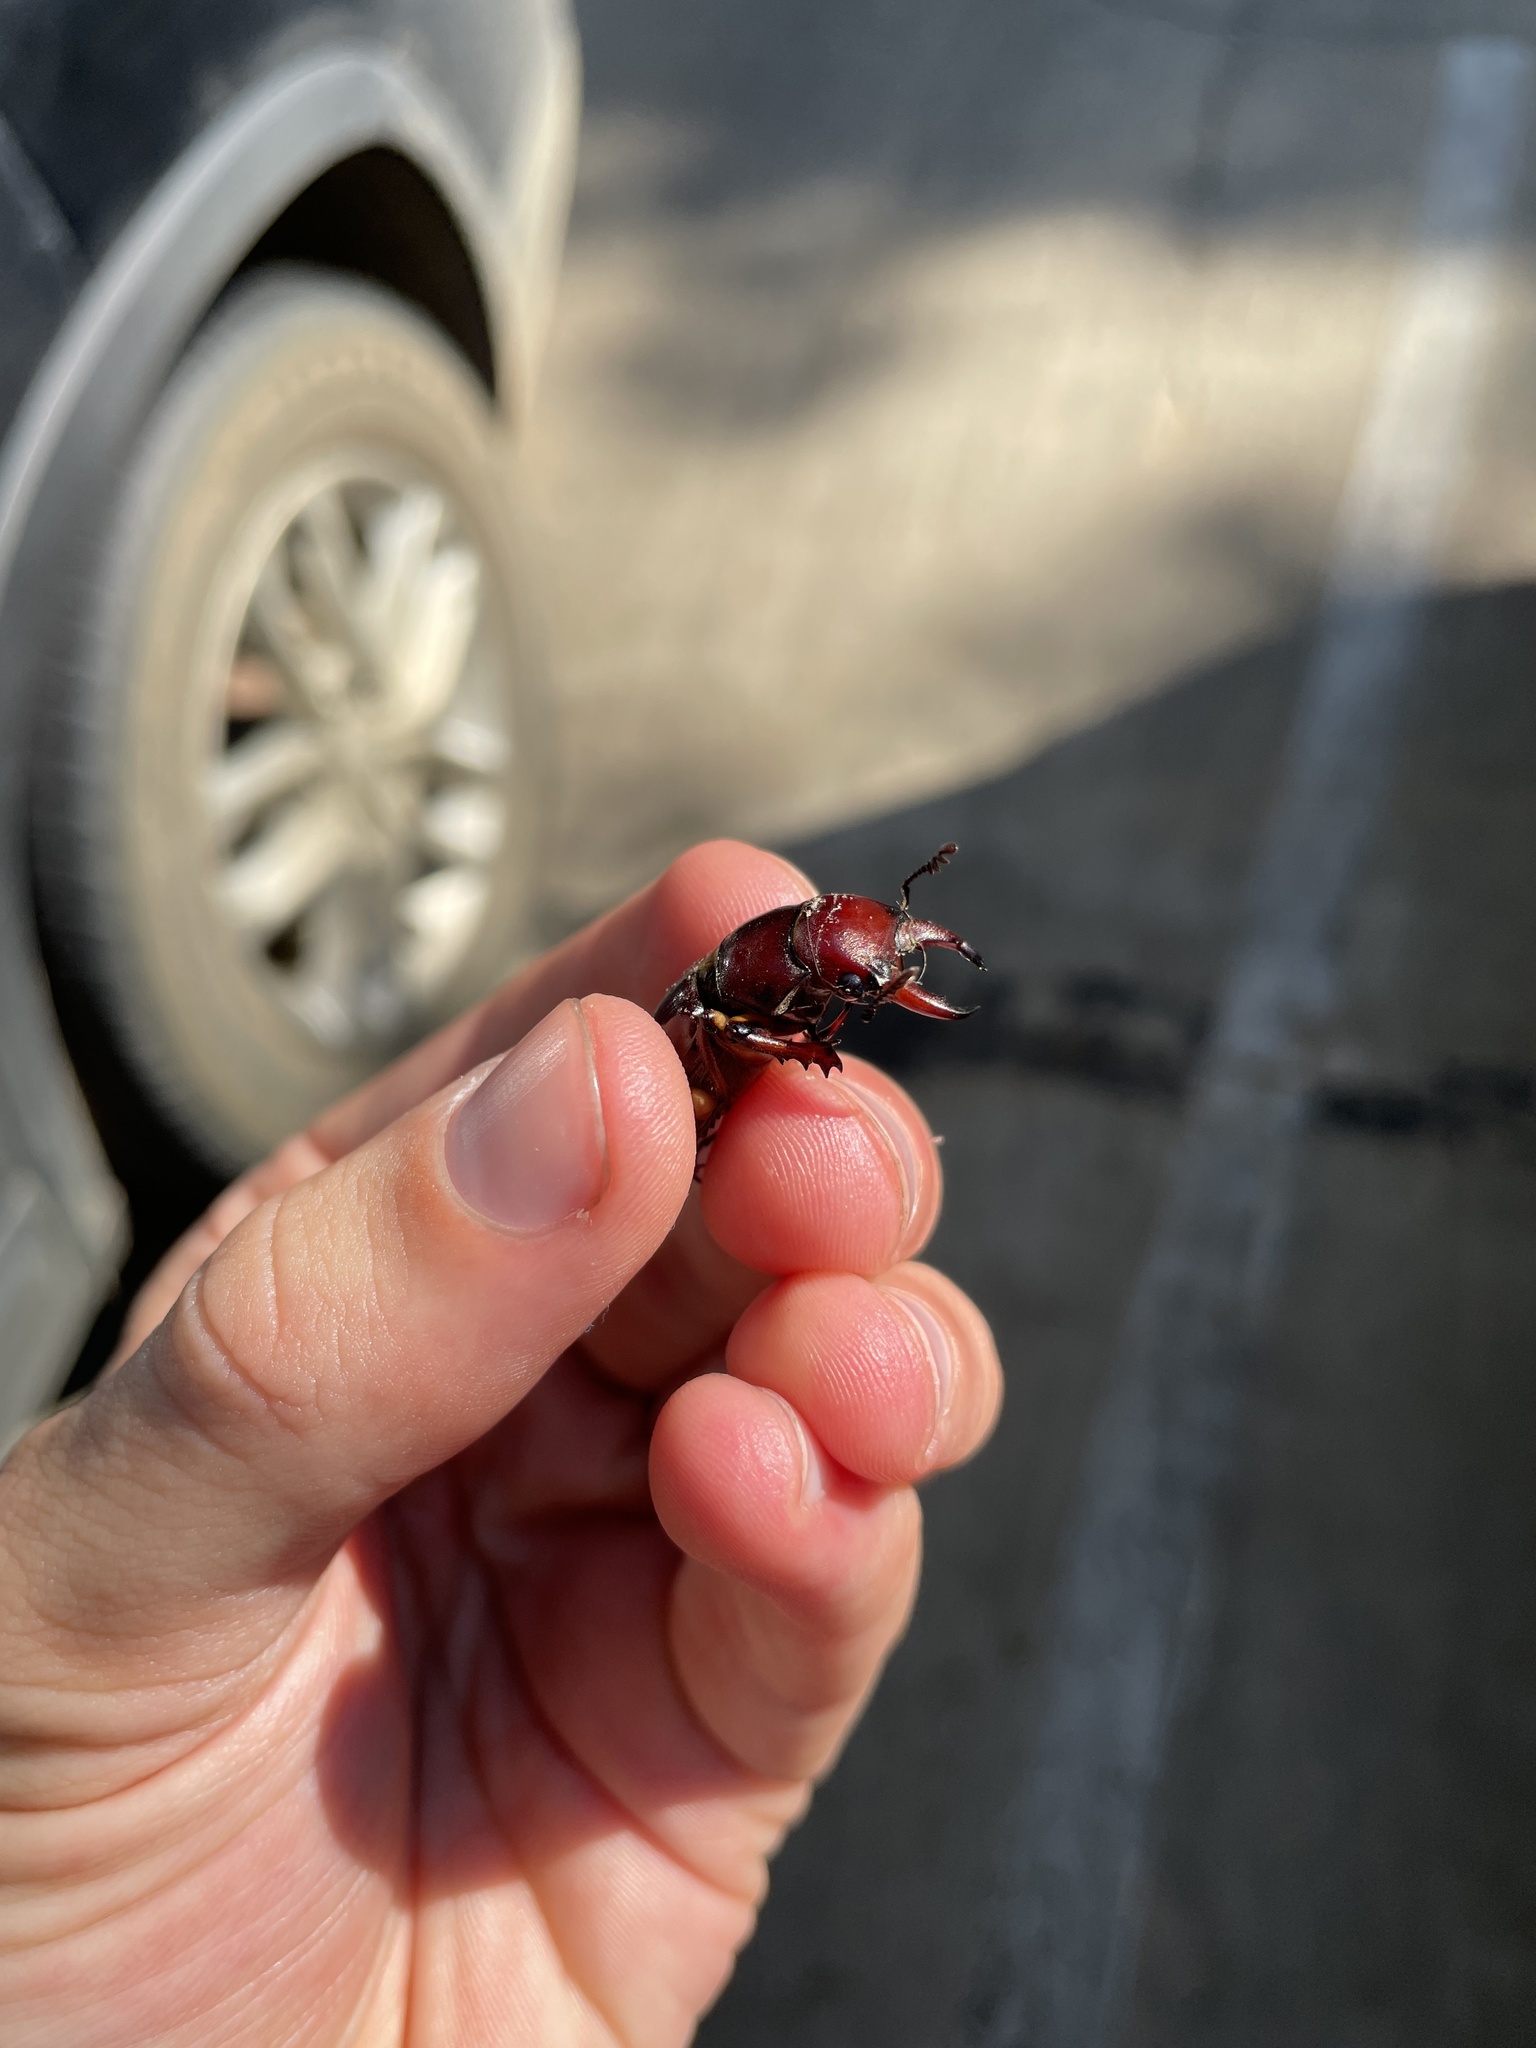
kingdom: Animalia
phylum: Arthropoda
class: Insecta
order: Coleoptera
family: Lucanidae
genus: Lucanus
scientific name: Lucanus capreolus
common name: Stag beetle
